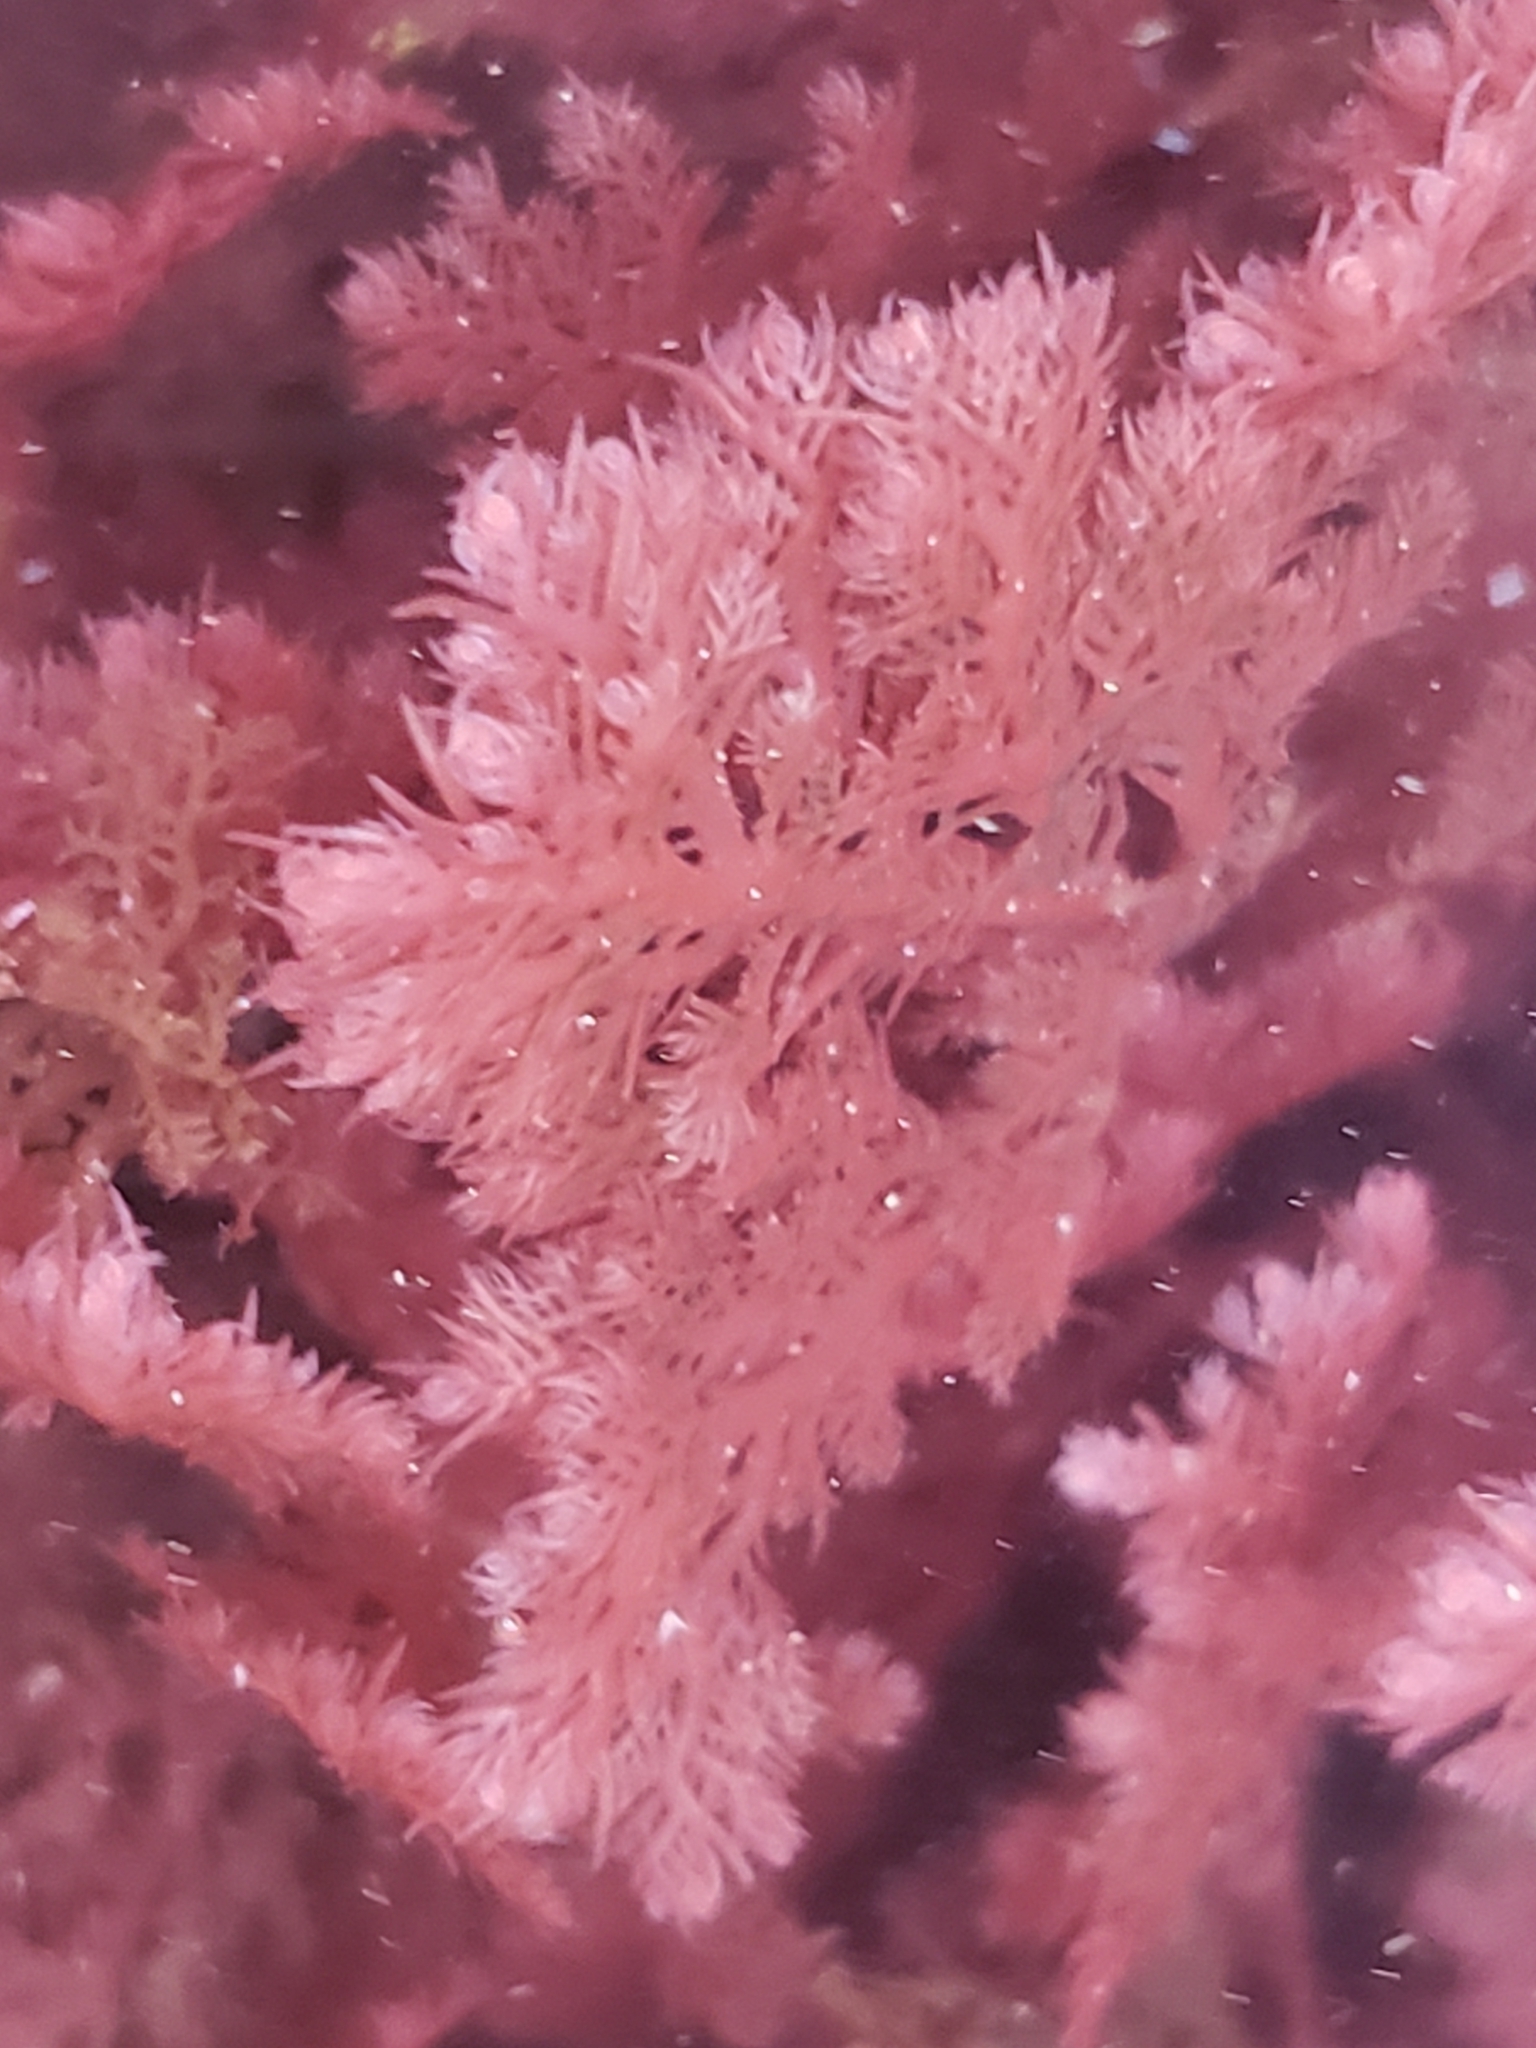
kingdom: Plantae
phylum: Rhodophyta
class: Florideophyceae
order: Plocamiales
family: Plocamiaceae
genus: Plocamium
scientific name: Plocamium cartilagineum
